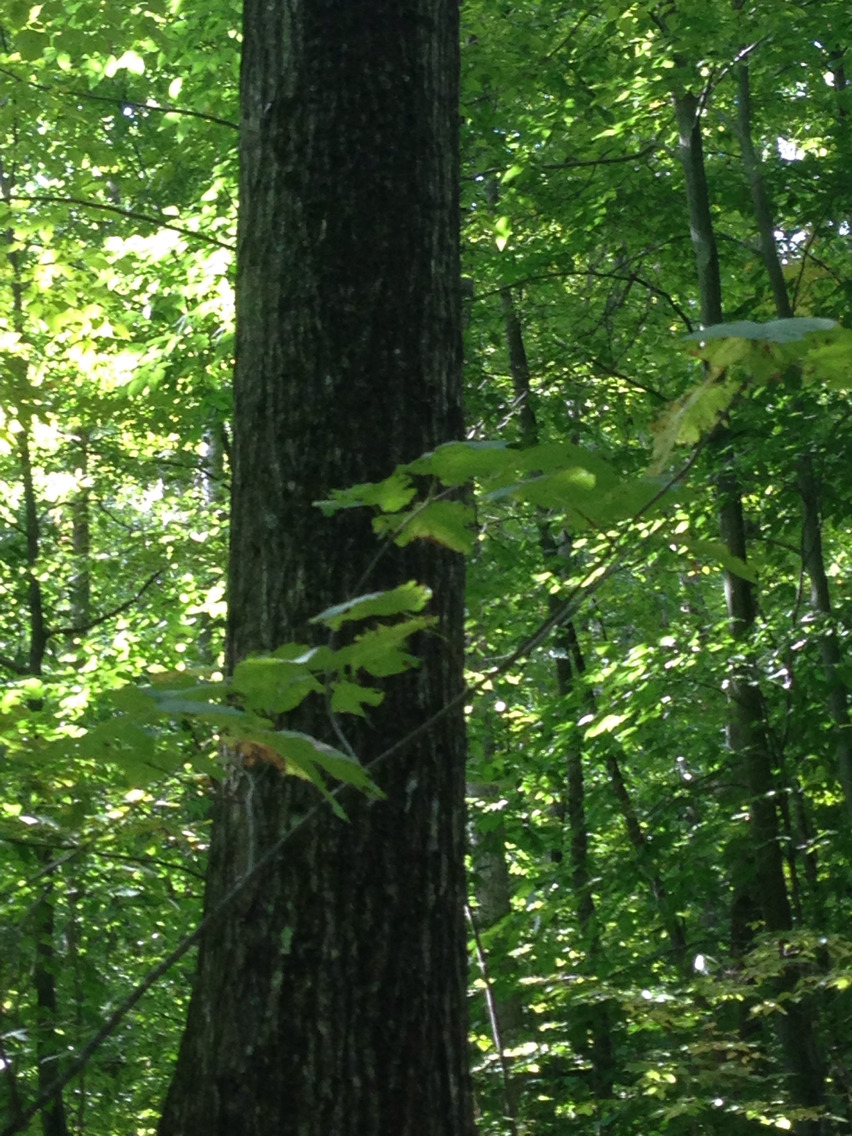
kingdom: Plantae
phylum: Tracheophyta
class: Magnoliopsida
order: Fagales
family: Fagaceae
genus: Quercus
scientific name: Quercus rubra
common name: Red oak
